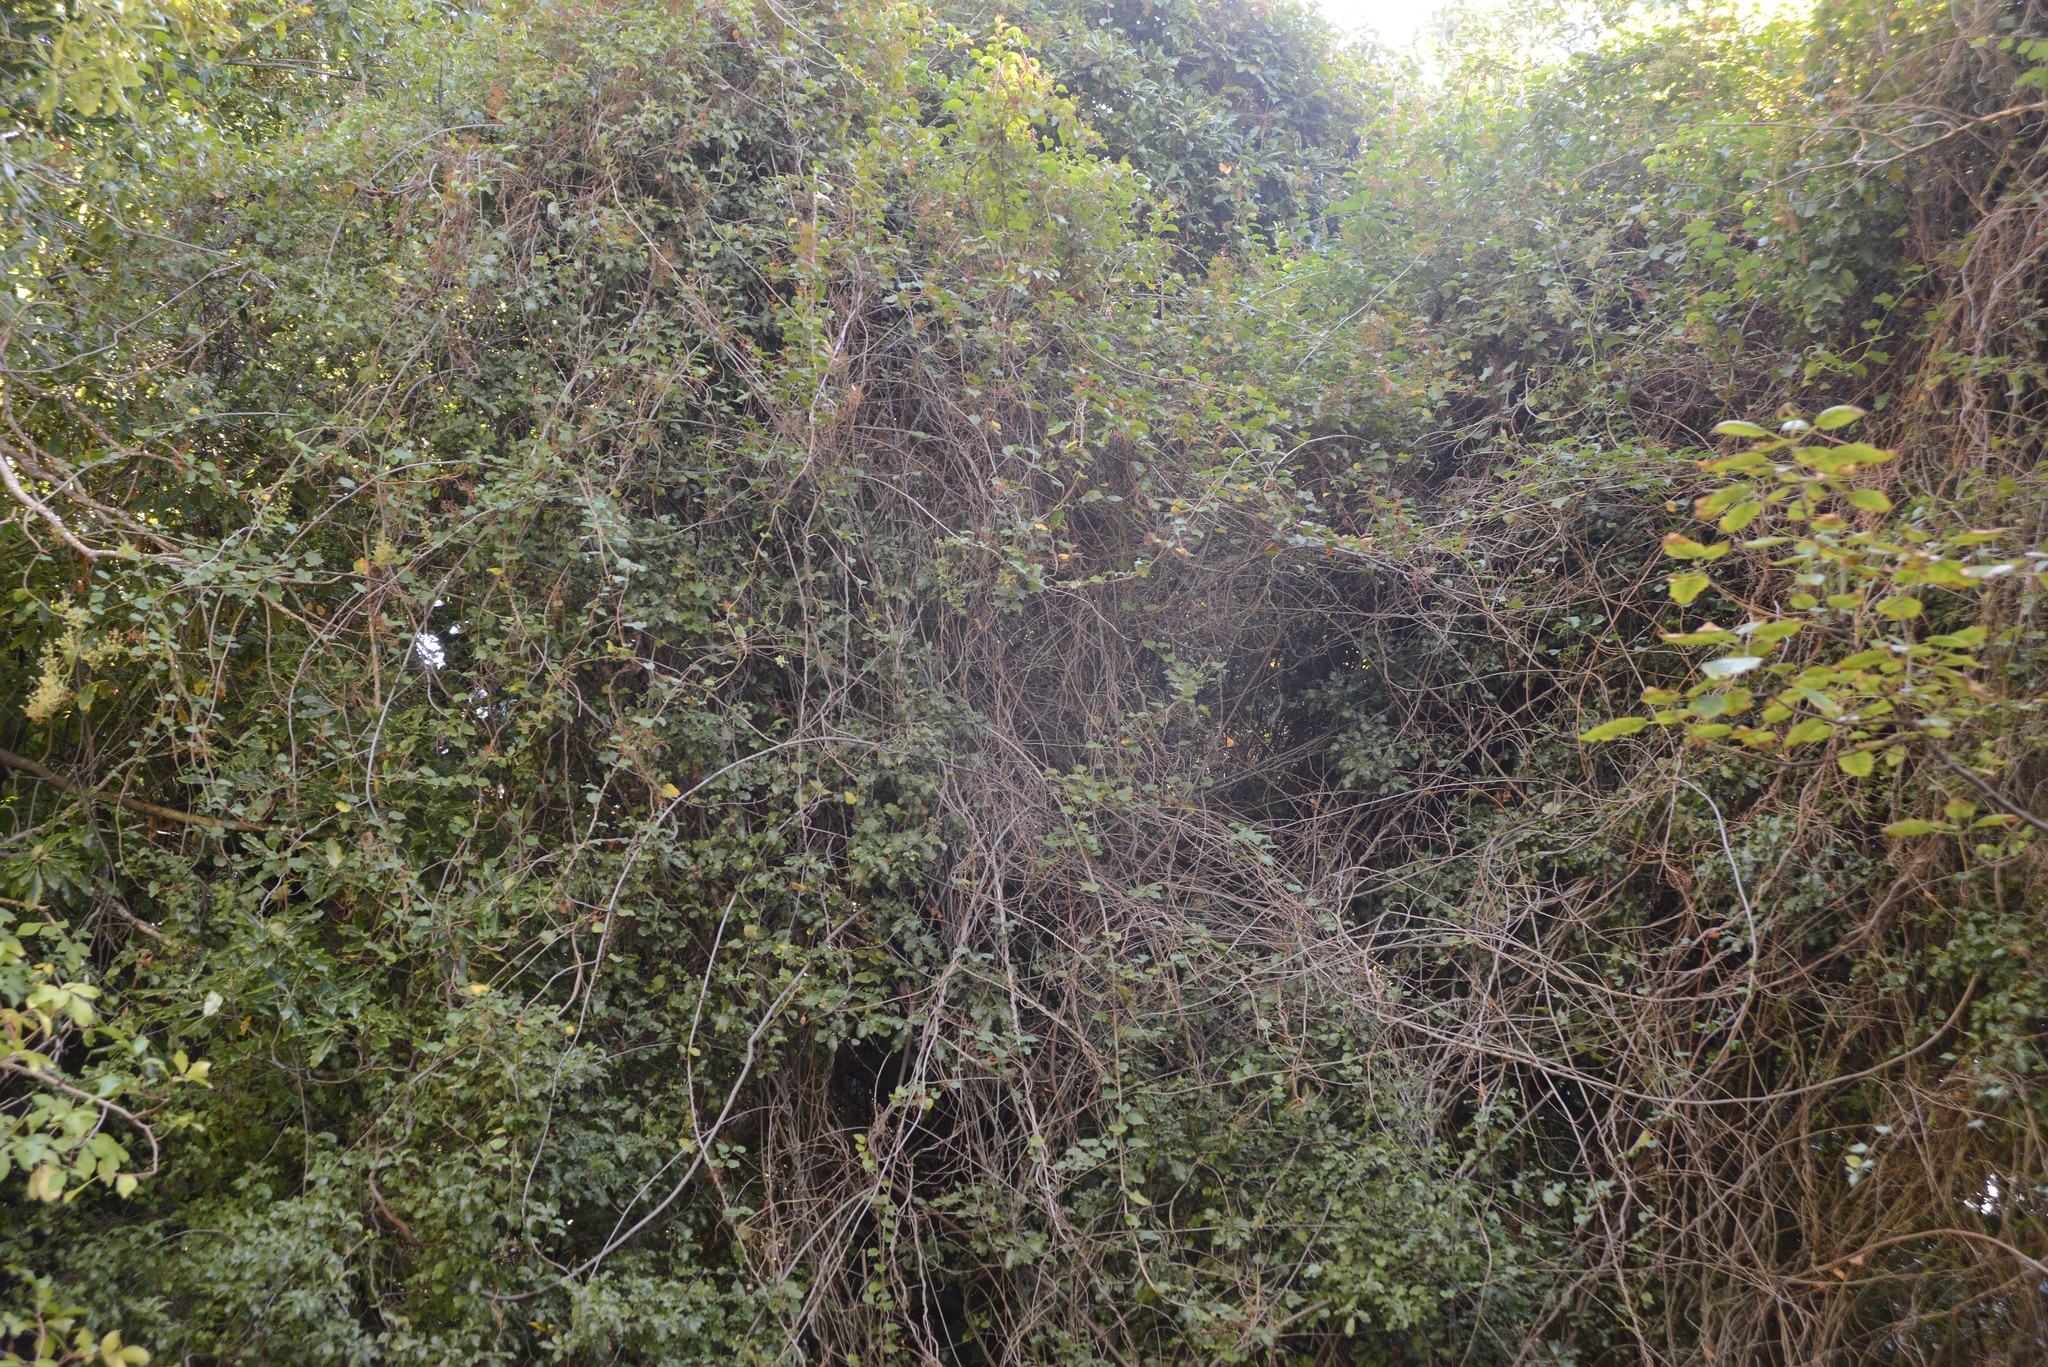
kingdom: Plantae
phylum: Tracheophyta
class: Magnoliopsida
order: Caryophyllales
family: Polygonaceae
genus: Muehlenbeckia
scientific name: Muehlenbeckia australis
